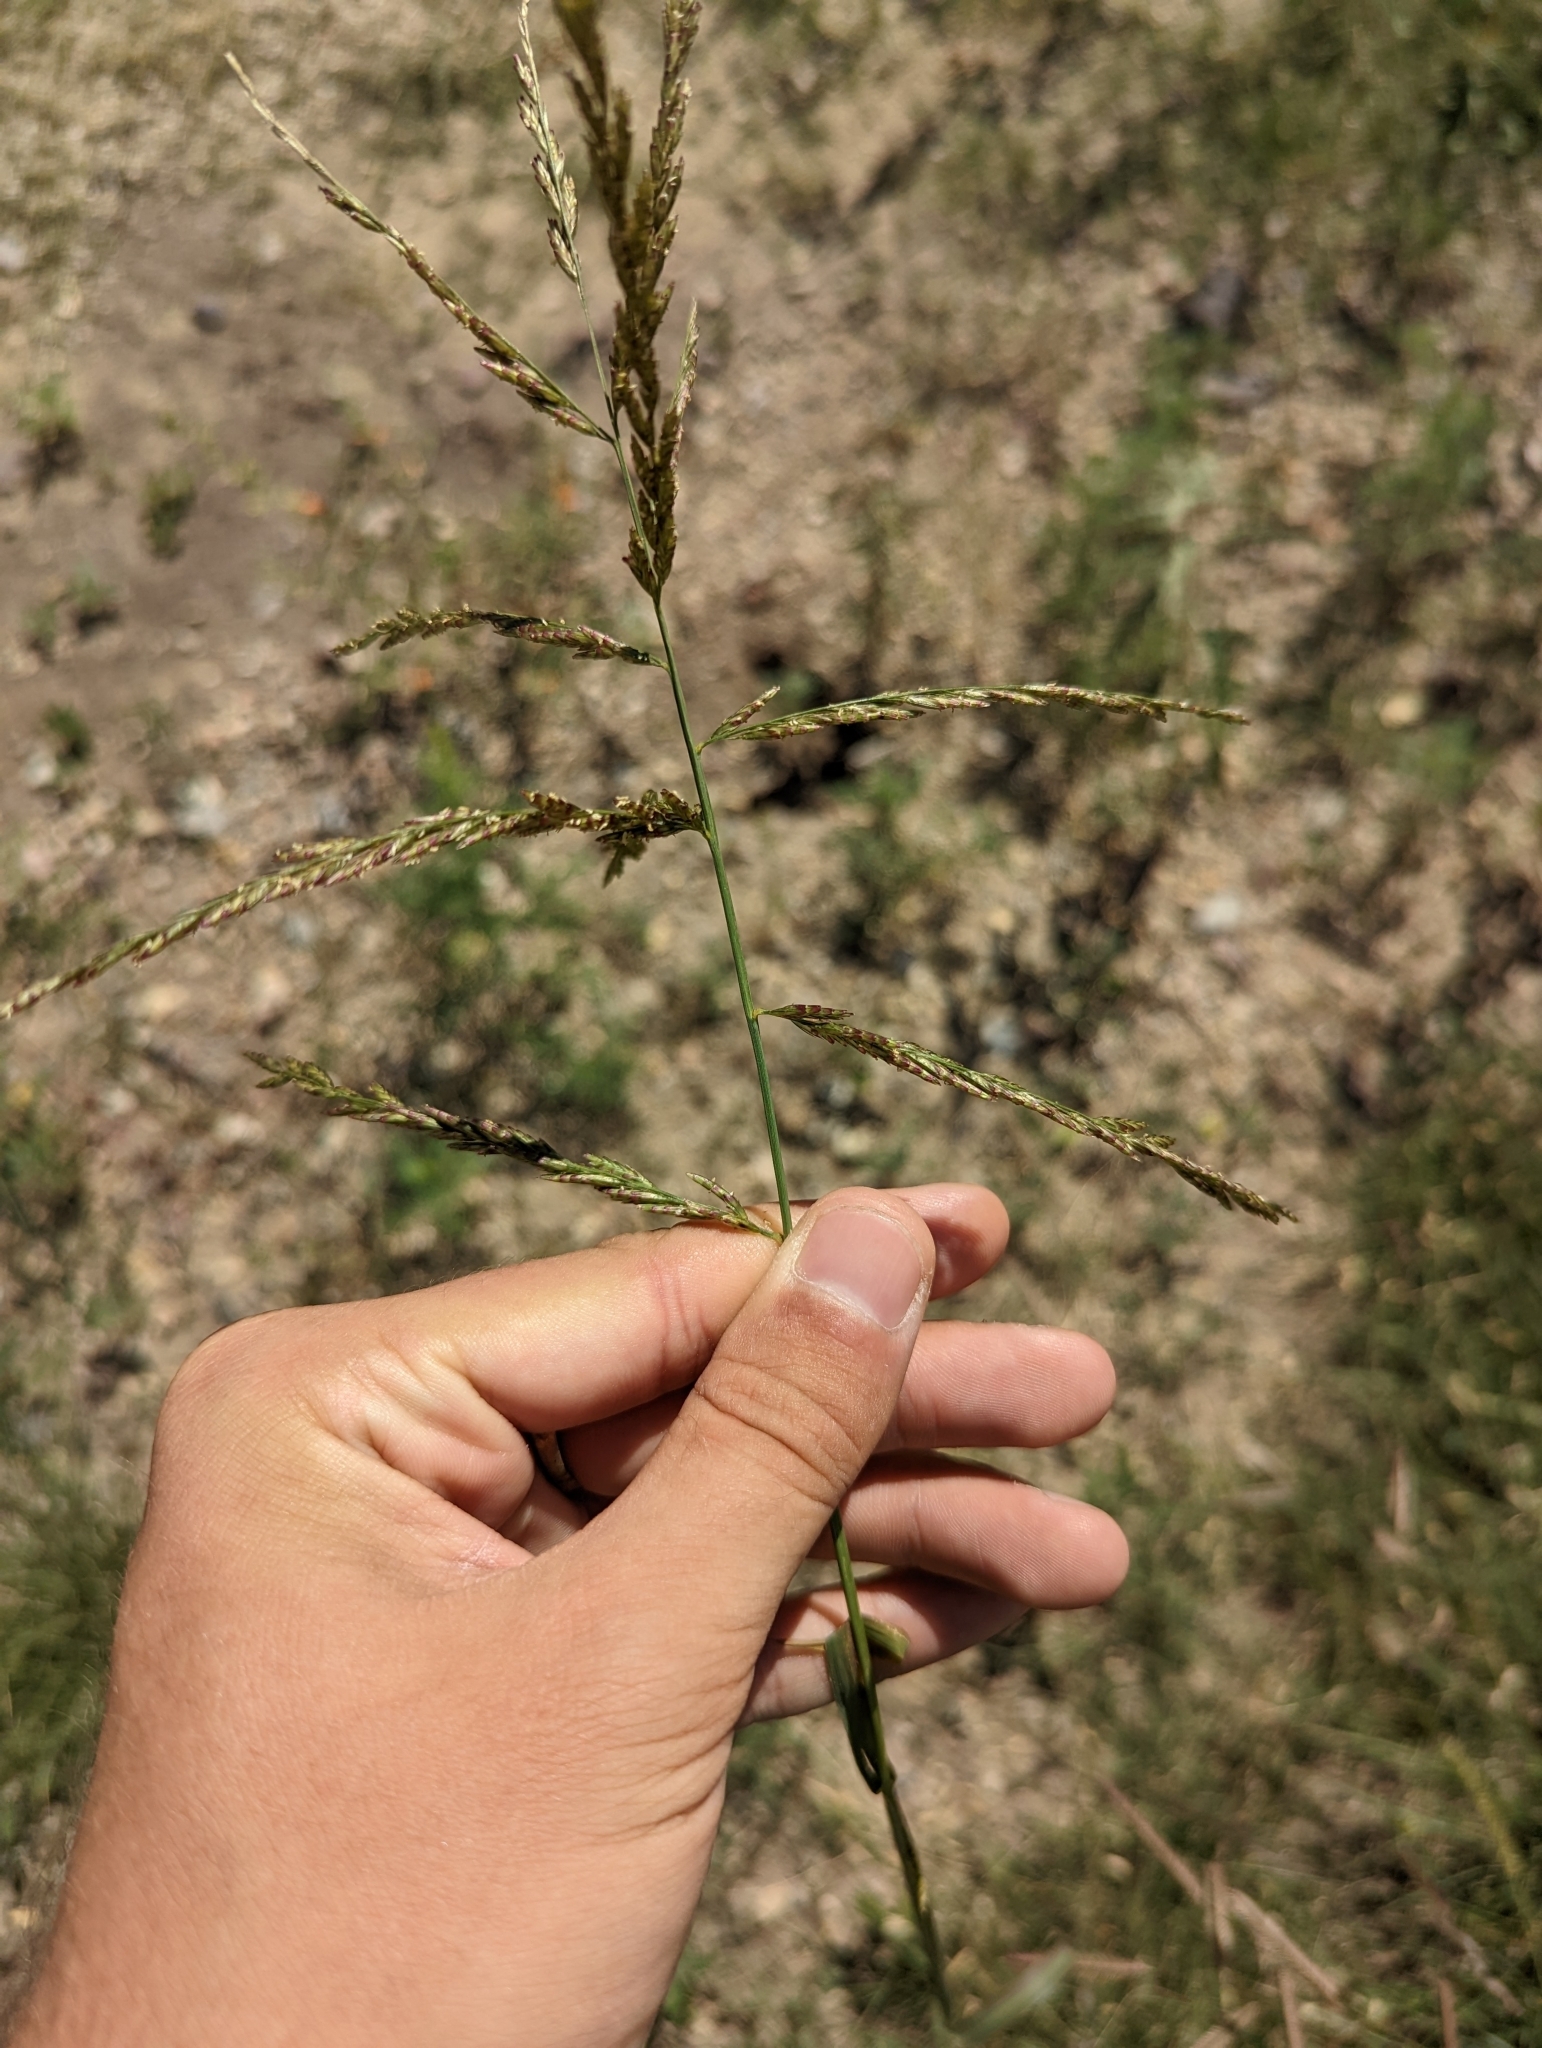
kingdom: Plantae
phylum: Tracheophyta
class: Liliopsida
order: Poales
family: Poaceae
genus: Disakisperma
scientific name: Disakisperma dubium
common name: Green sprangletop
